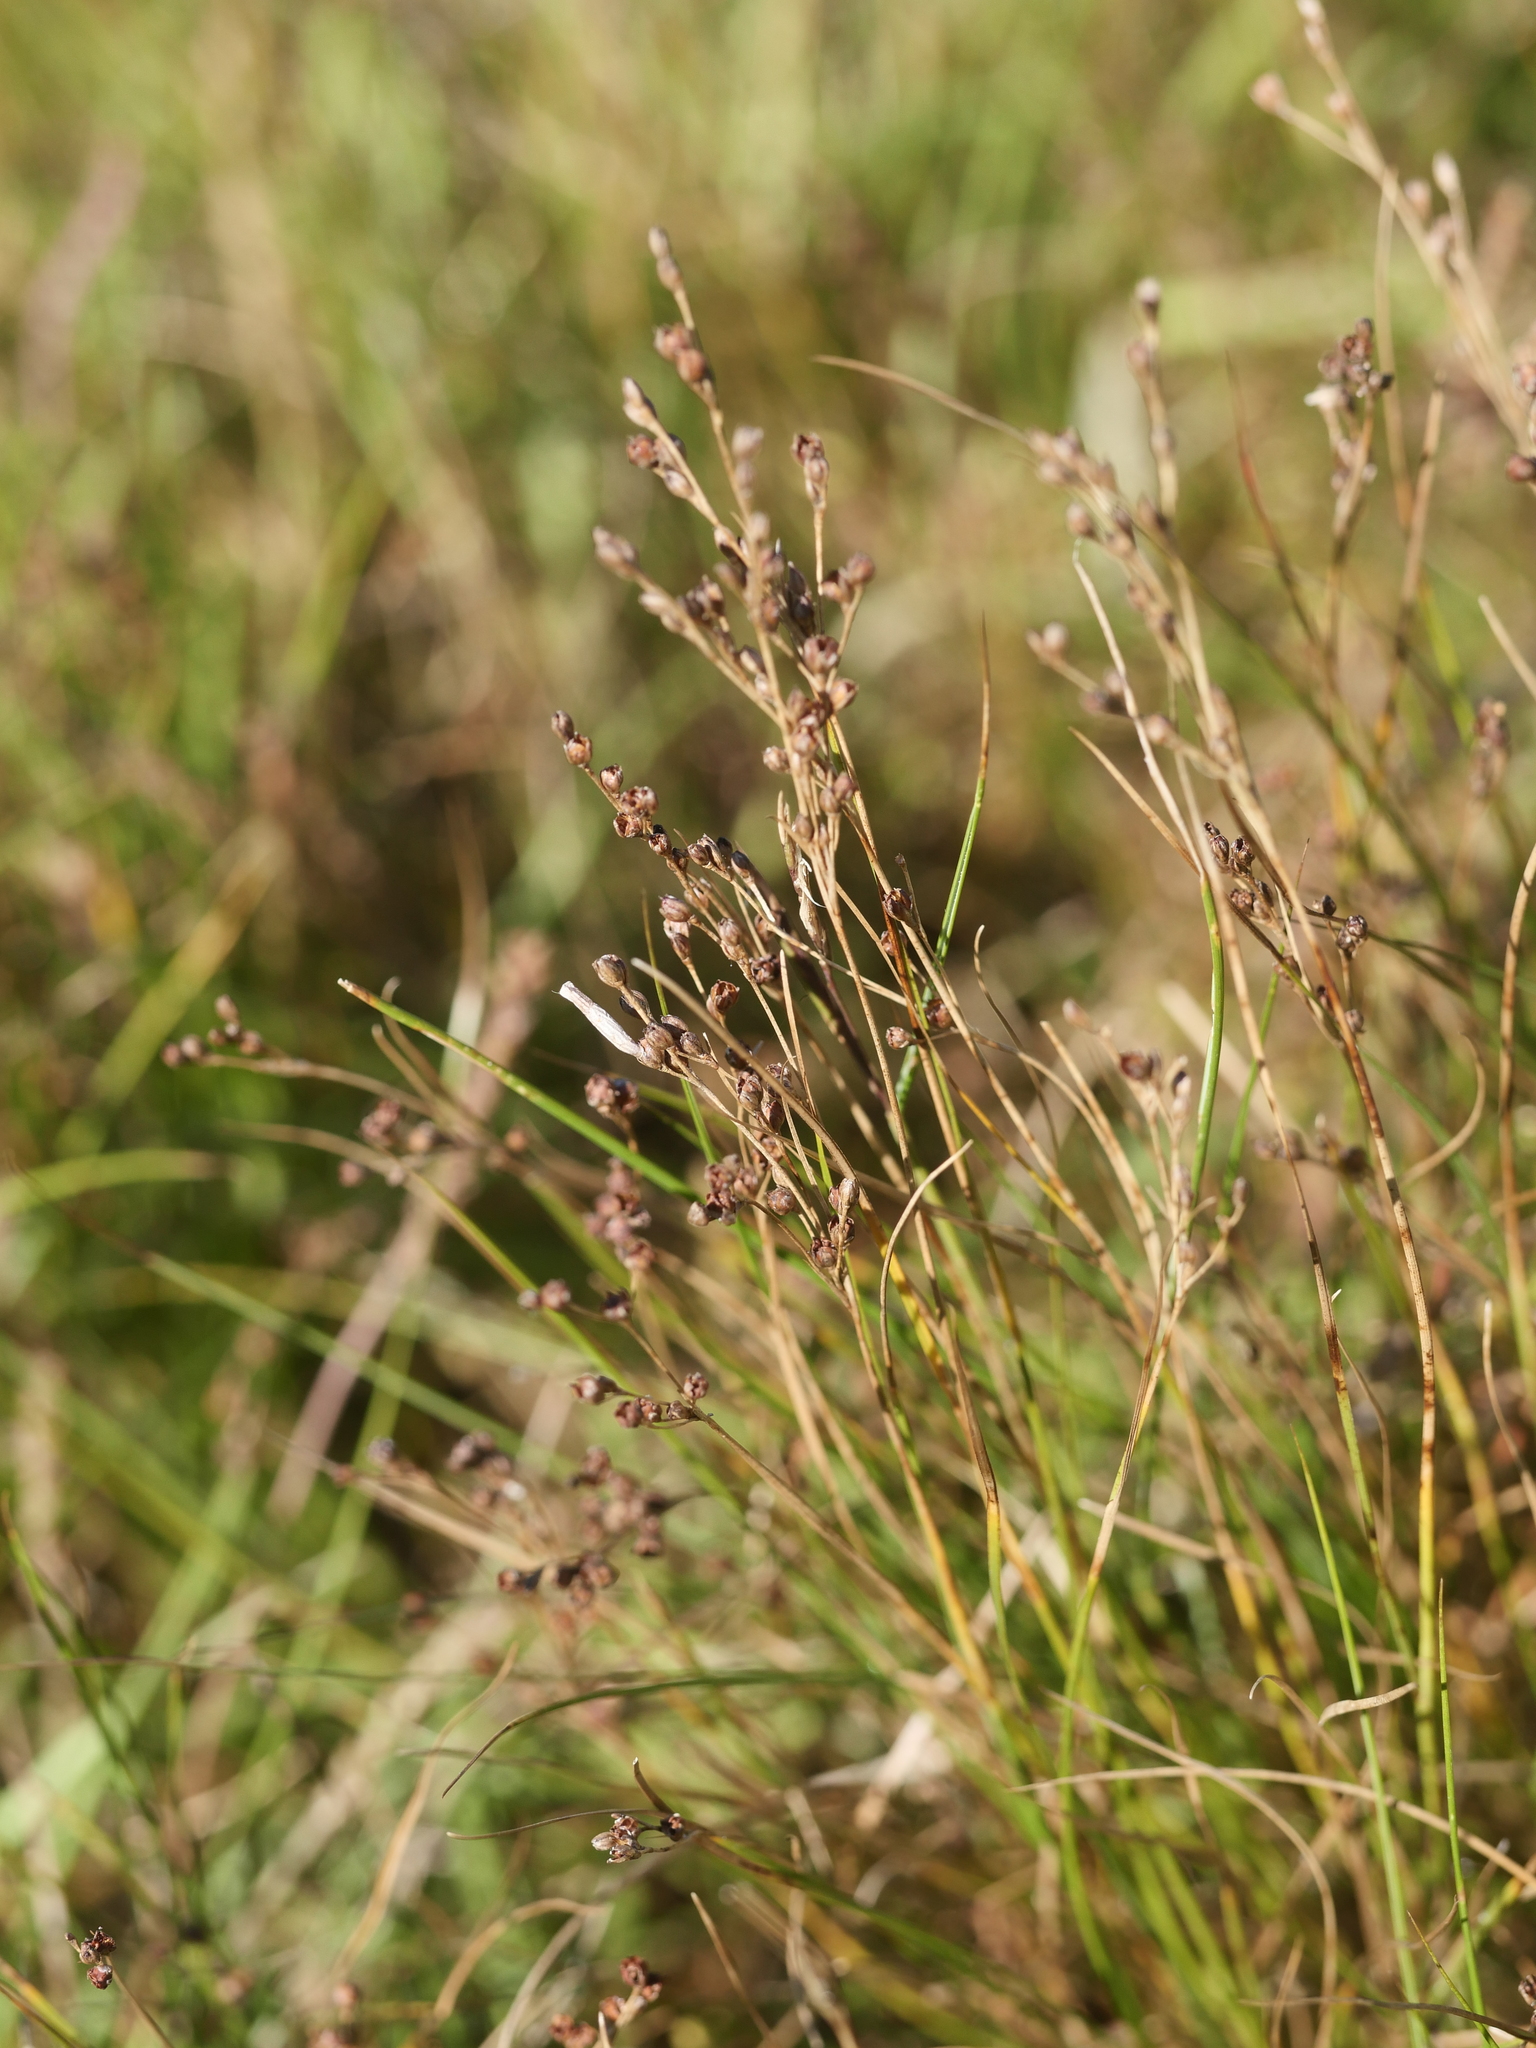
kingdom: Plantae
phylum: Tracheophyta
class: Liliopsida
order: Poales
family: Juncaceae
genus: Juncus
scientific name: Juncus gerardi
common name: Saltmarsh rush
